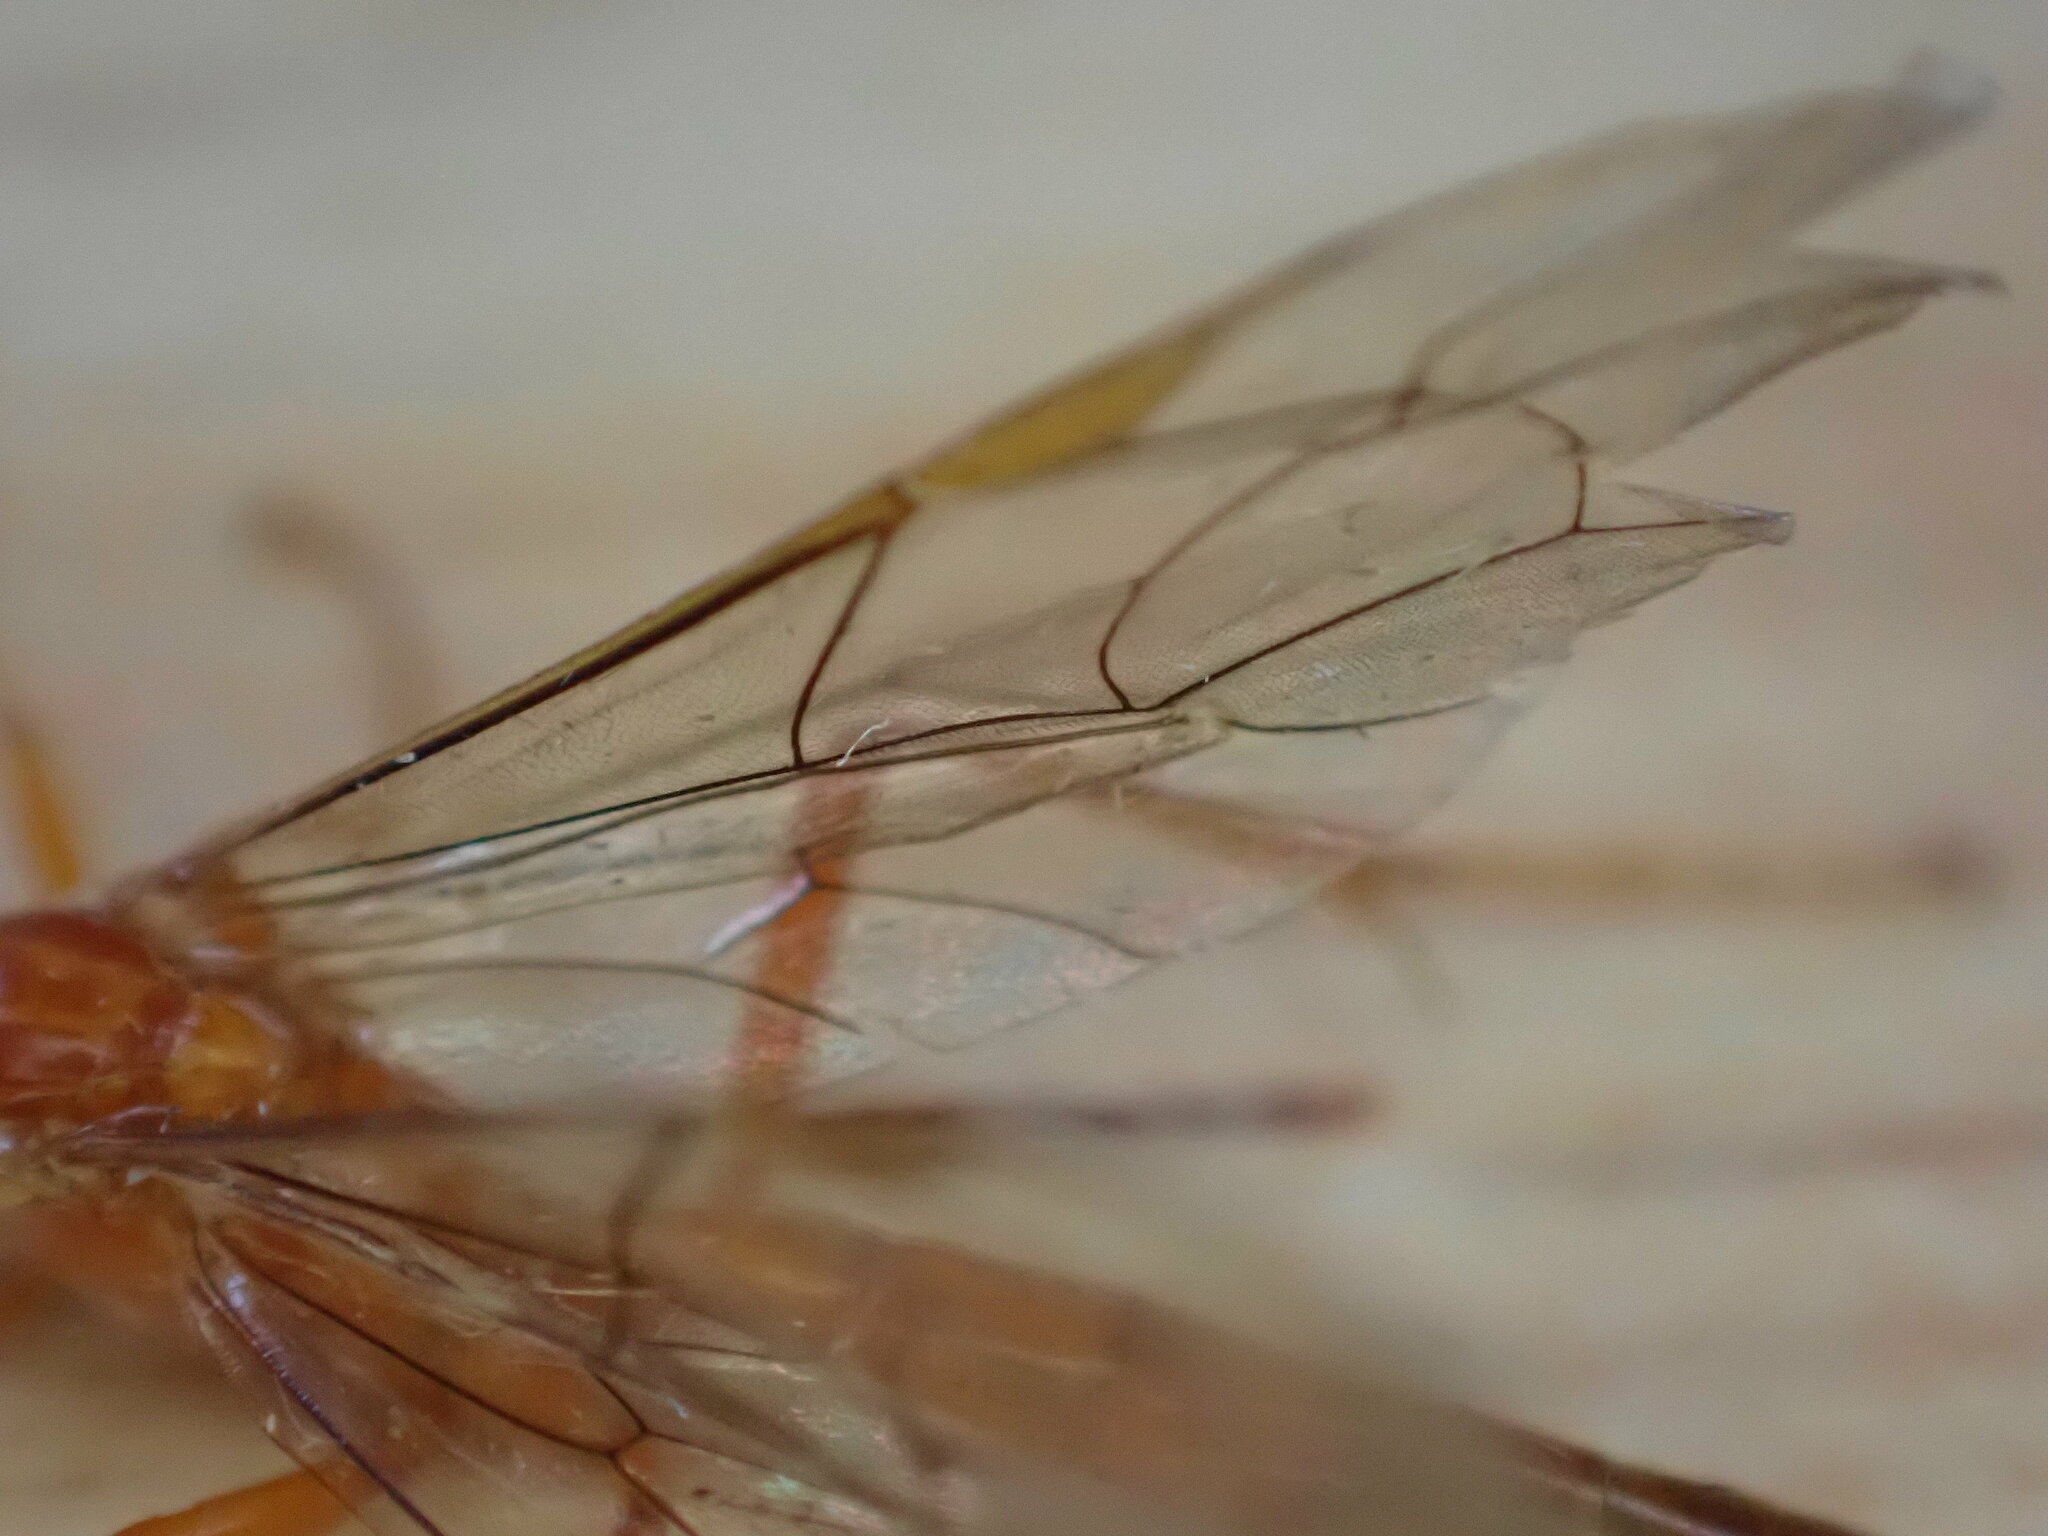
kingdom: Animalia
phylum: Arthropoda
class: Insecta
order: Hymenoptera
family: Ichneumonidae
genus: Netelia
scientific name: Netelia
